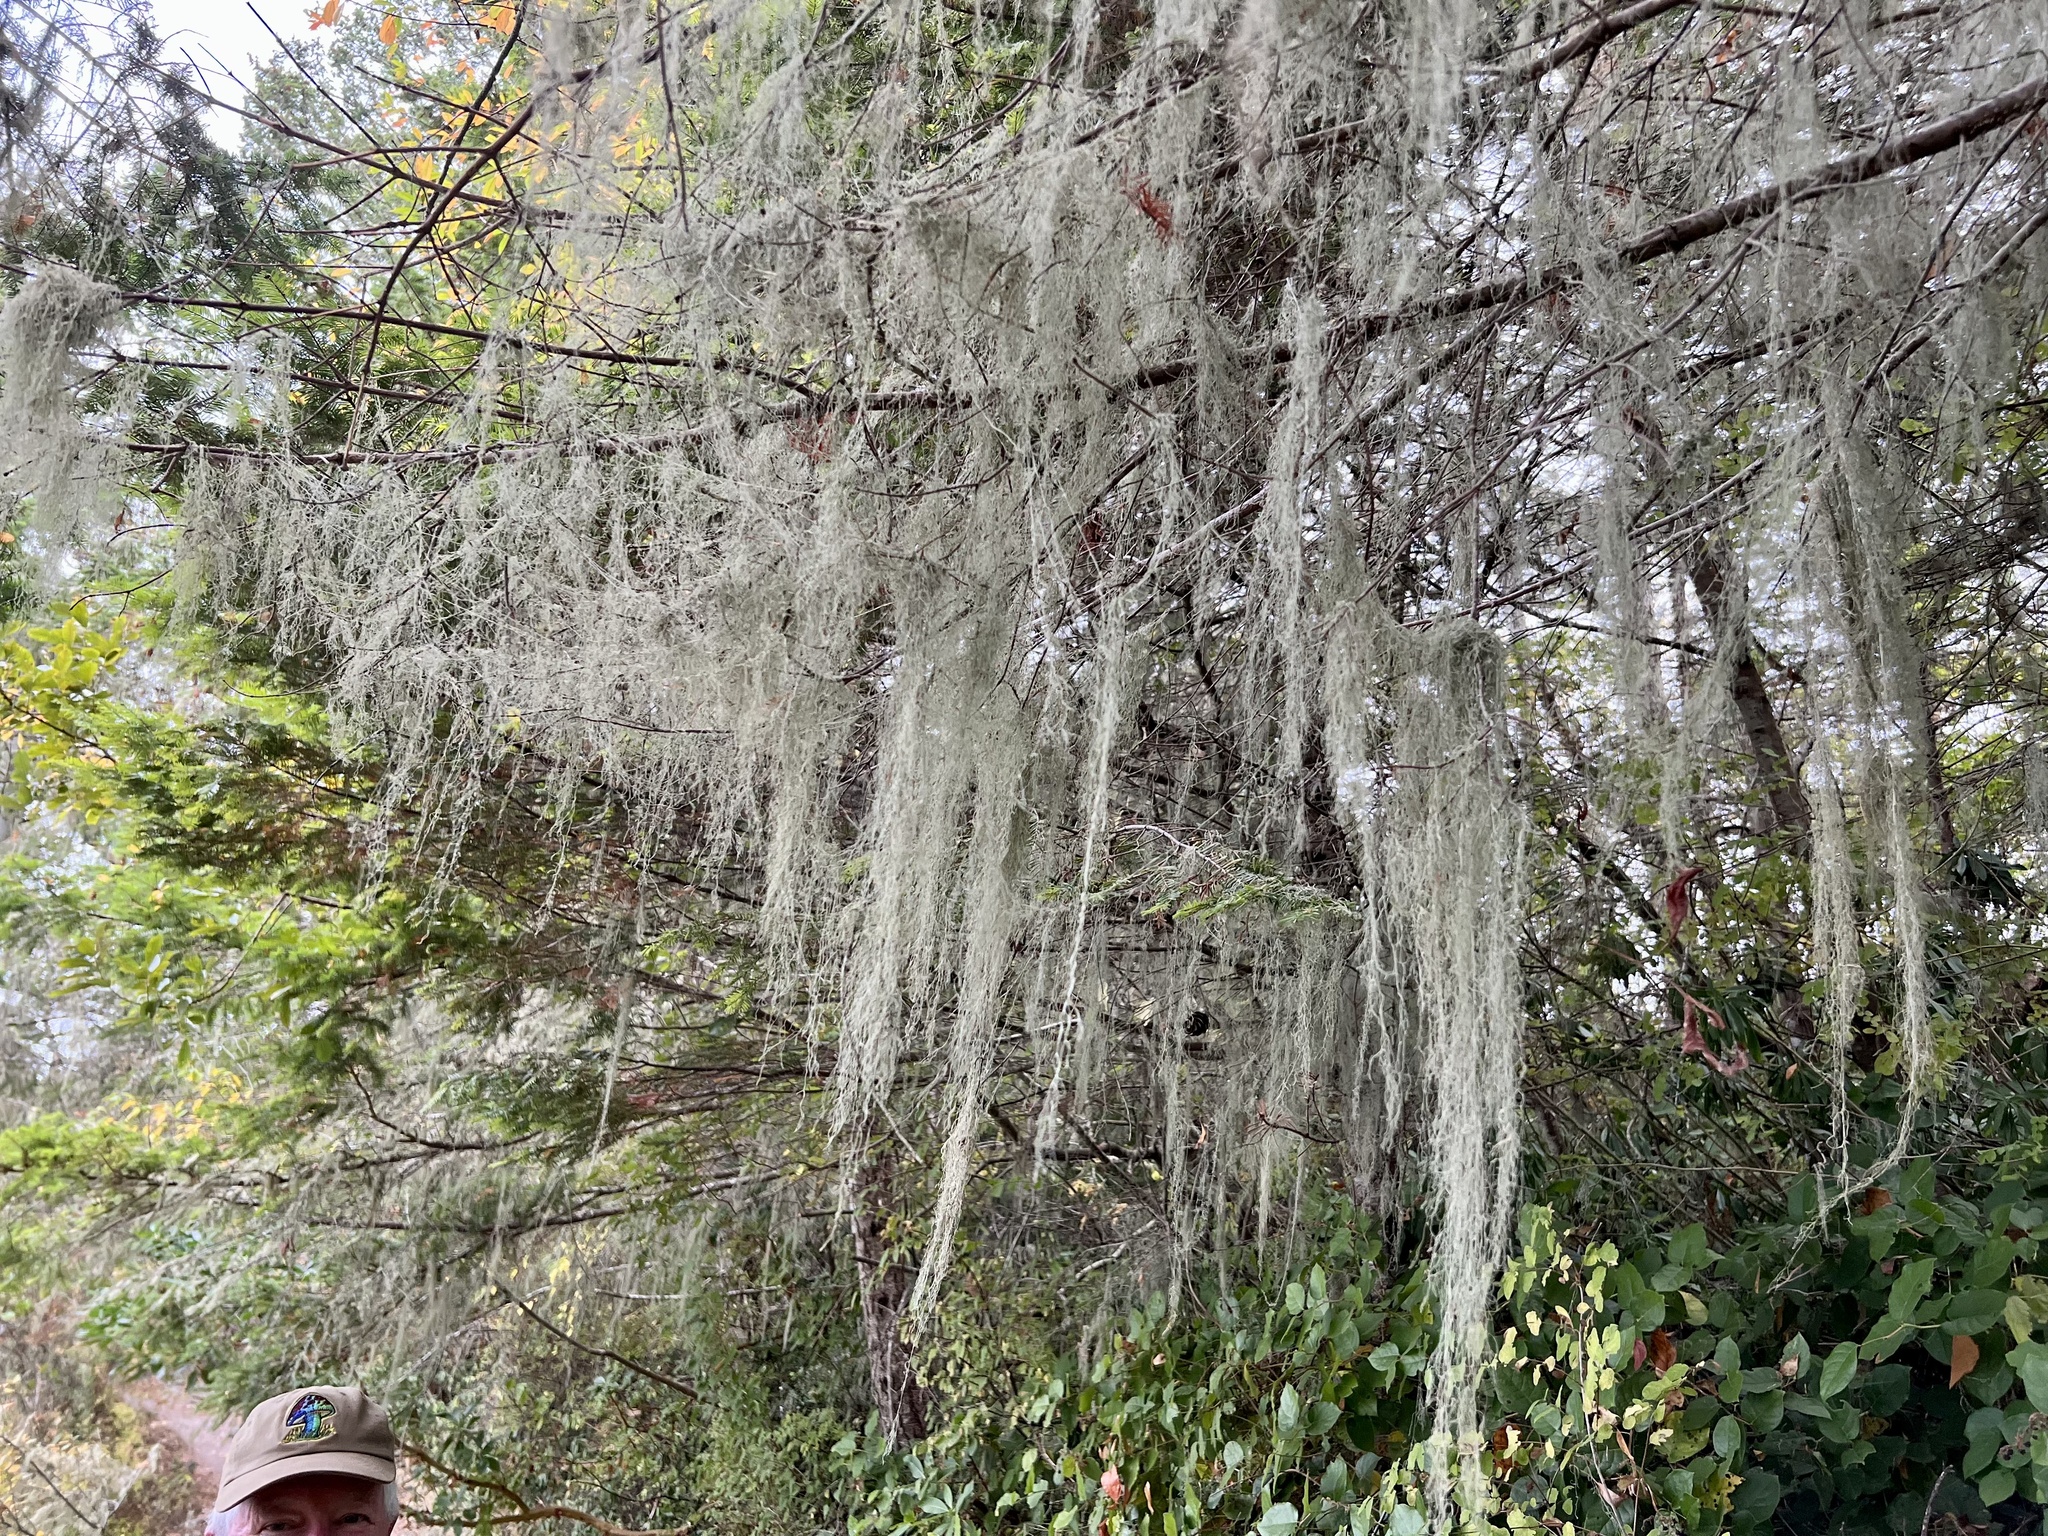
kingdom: Fungi
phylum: Ascomycota
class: Lecanoromycetes
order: Lecanorales
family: Ramalinaceae
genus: Ramalina
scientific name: Ramalina menziesii
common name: Lace lichen
